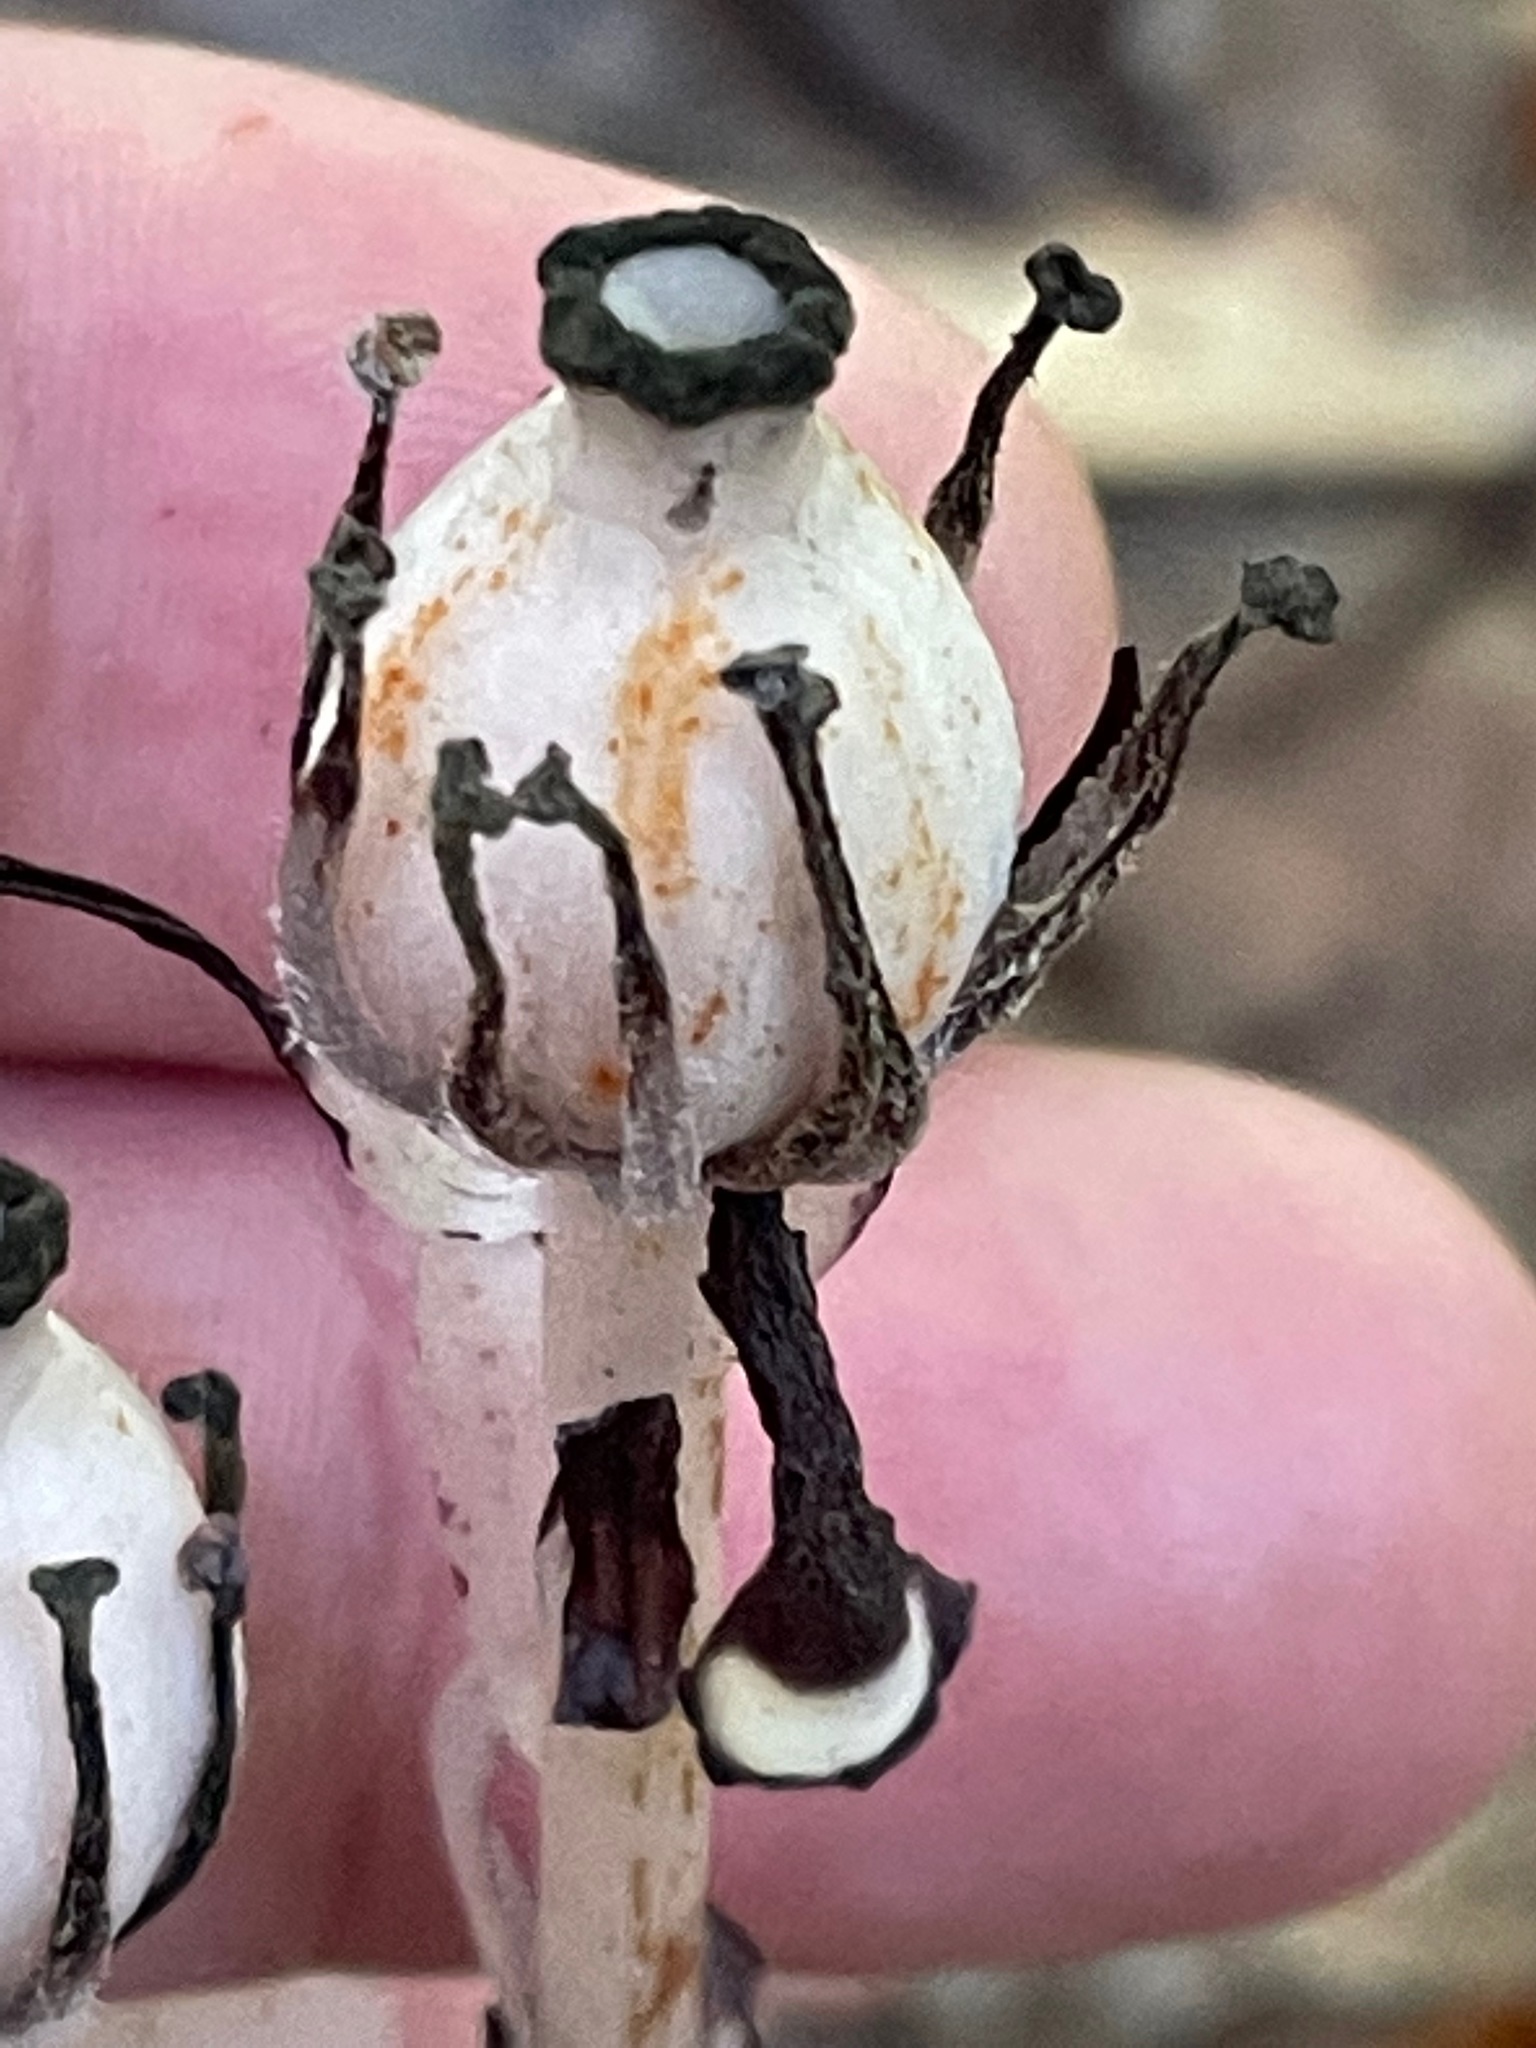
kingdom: Plantae
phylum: Tracheophyta
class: Magnoliopsida
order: Ericales
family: Ericaceae
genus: Monotropa
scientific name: Monotropa uniflora
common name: Convulsion root
